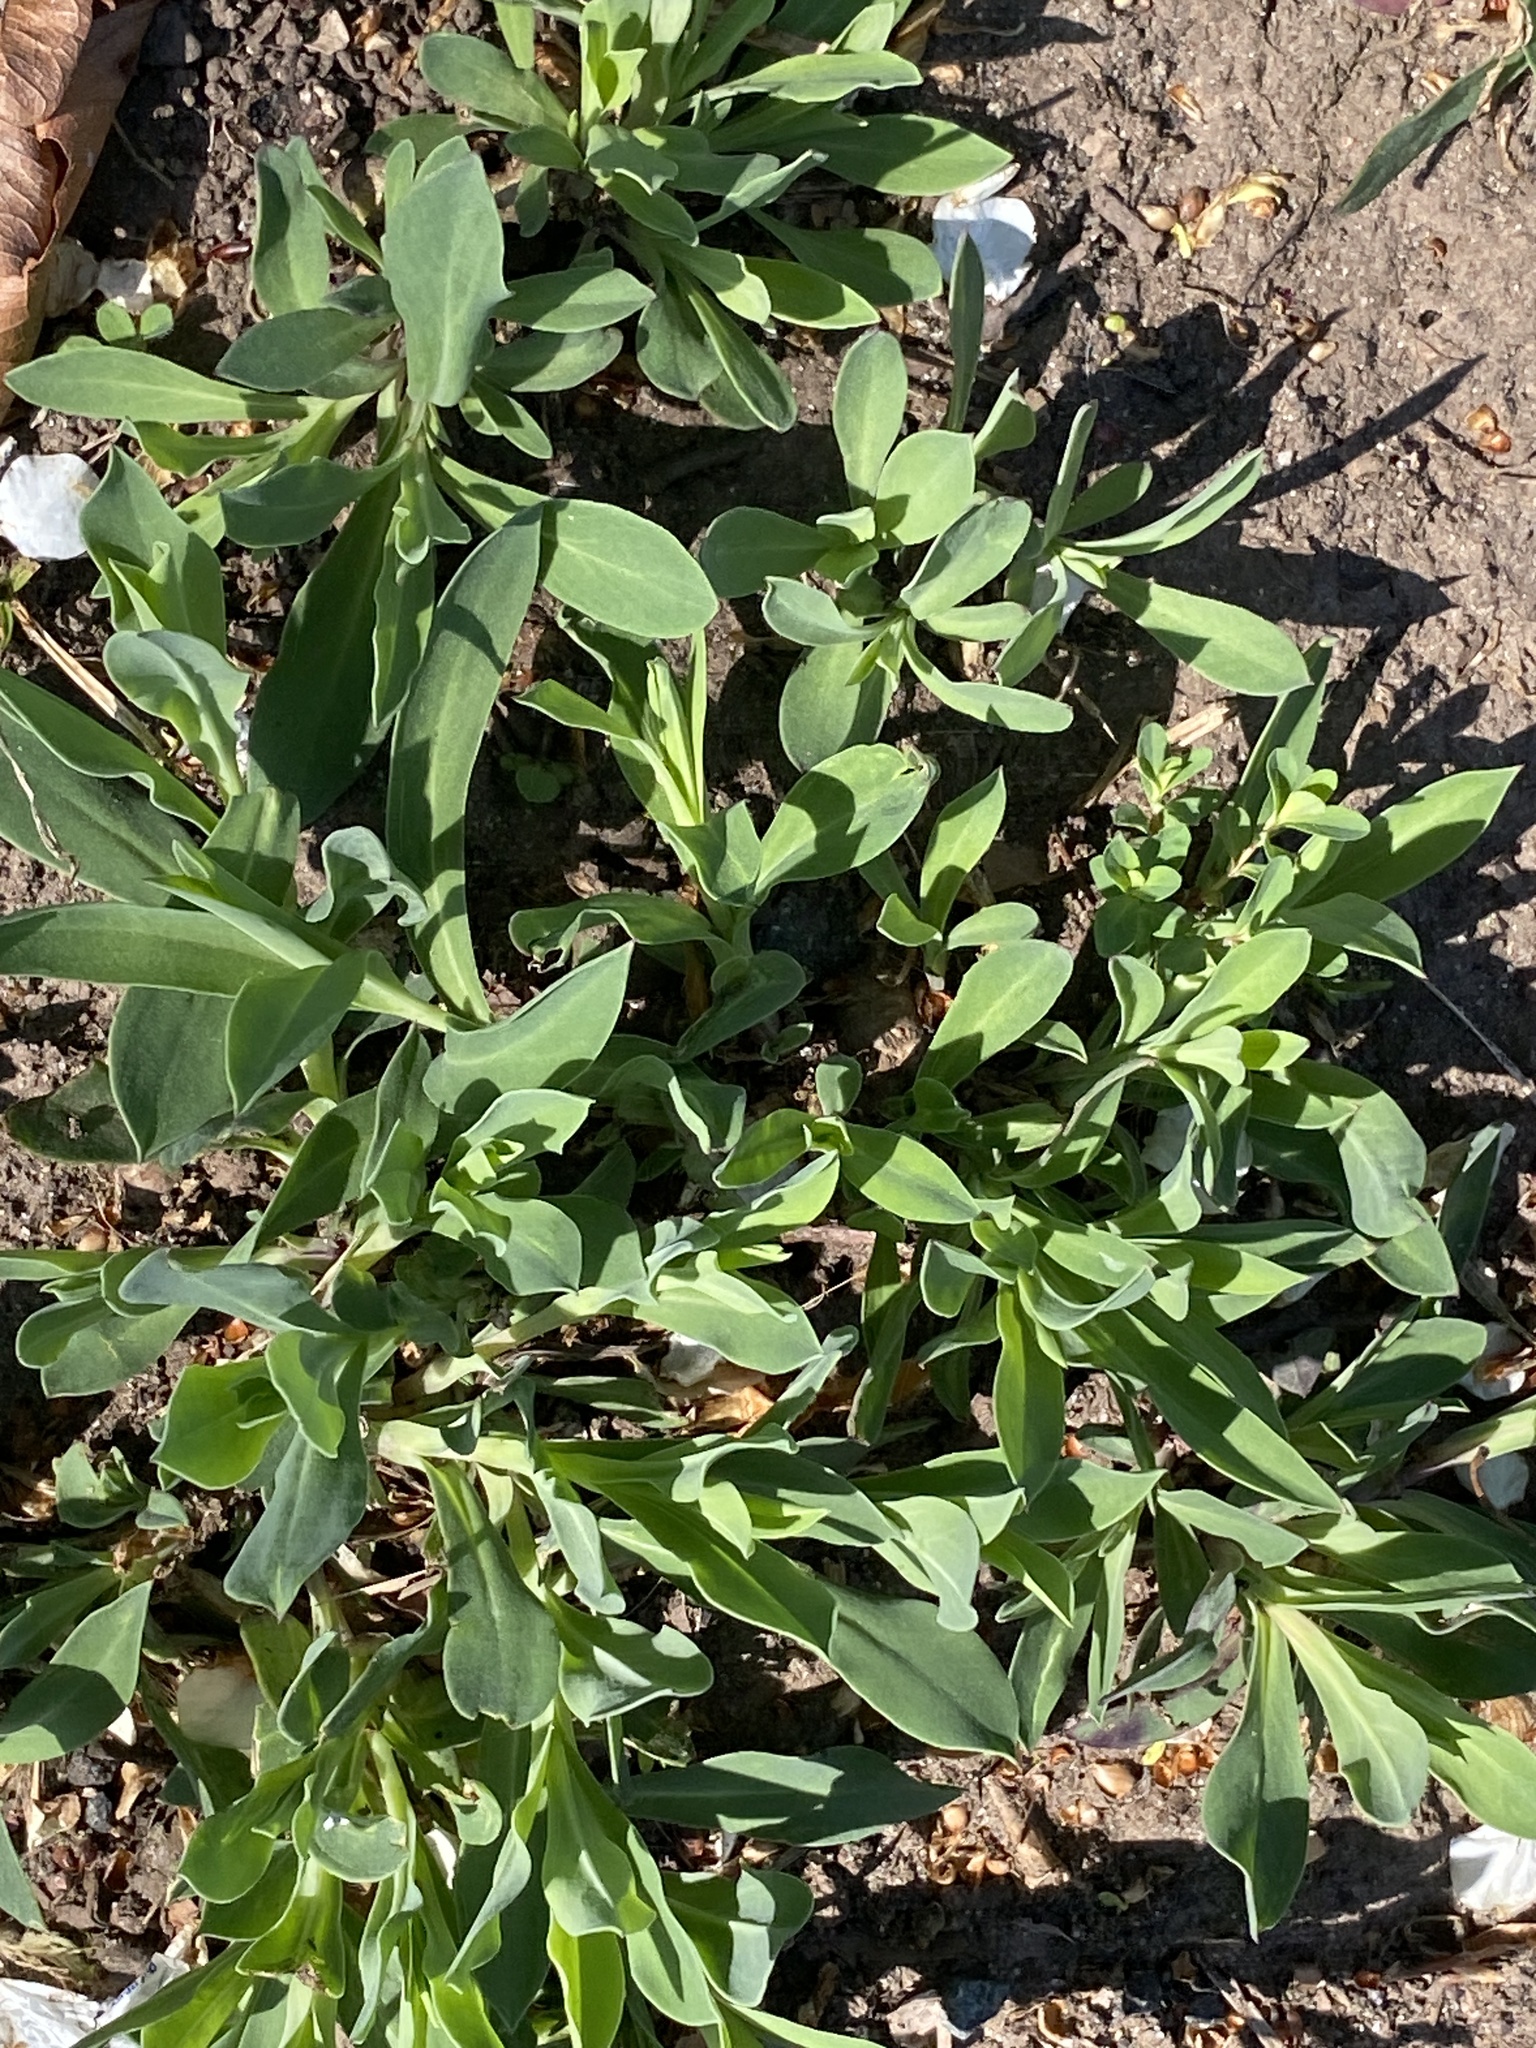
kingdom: Plantae
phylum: Tracheophyta
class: Magnoliopsida
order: Caryophyllales
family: Caryophyllaceae
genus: Silene
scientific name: Silene vulgaris
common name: Bladder campion
